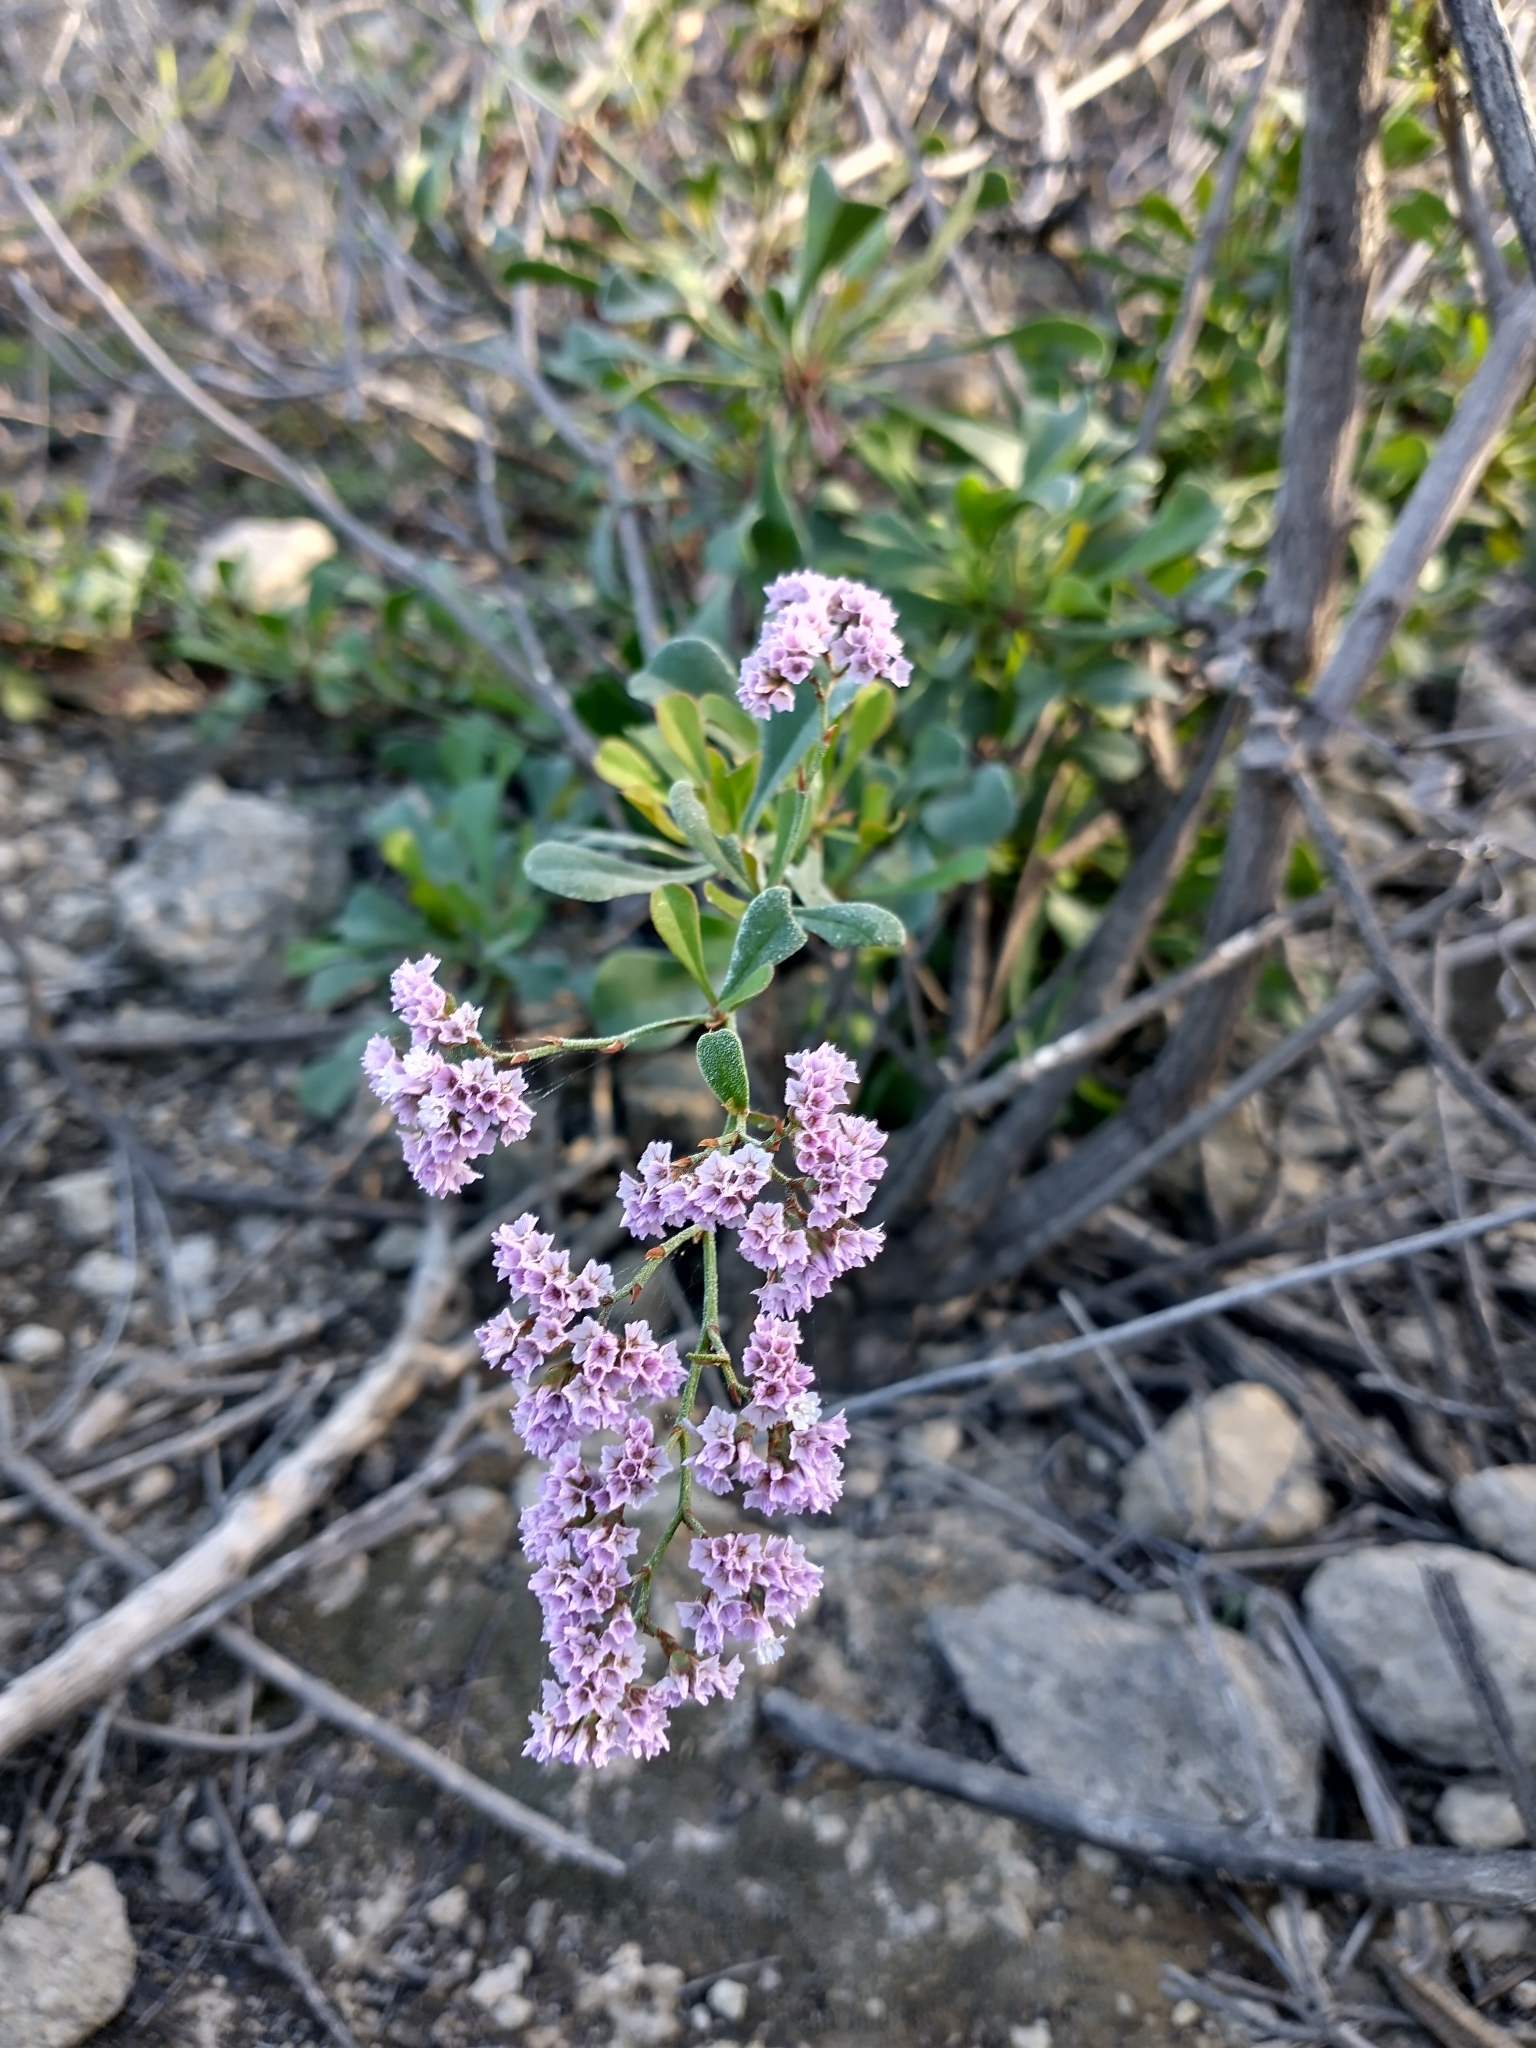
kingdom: Plantae
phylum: Tracheophyta
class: Magnoliopsida
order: Caryophyllales
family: Plumbaginaceae
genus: Limonium
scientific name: Limonium pectinatum
